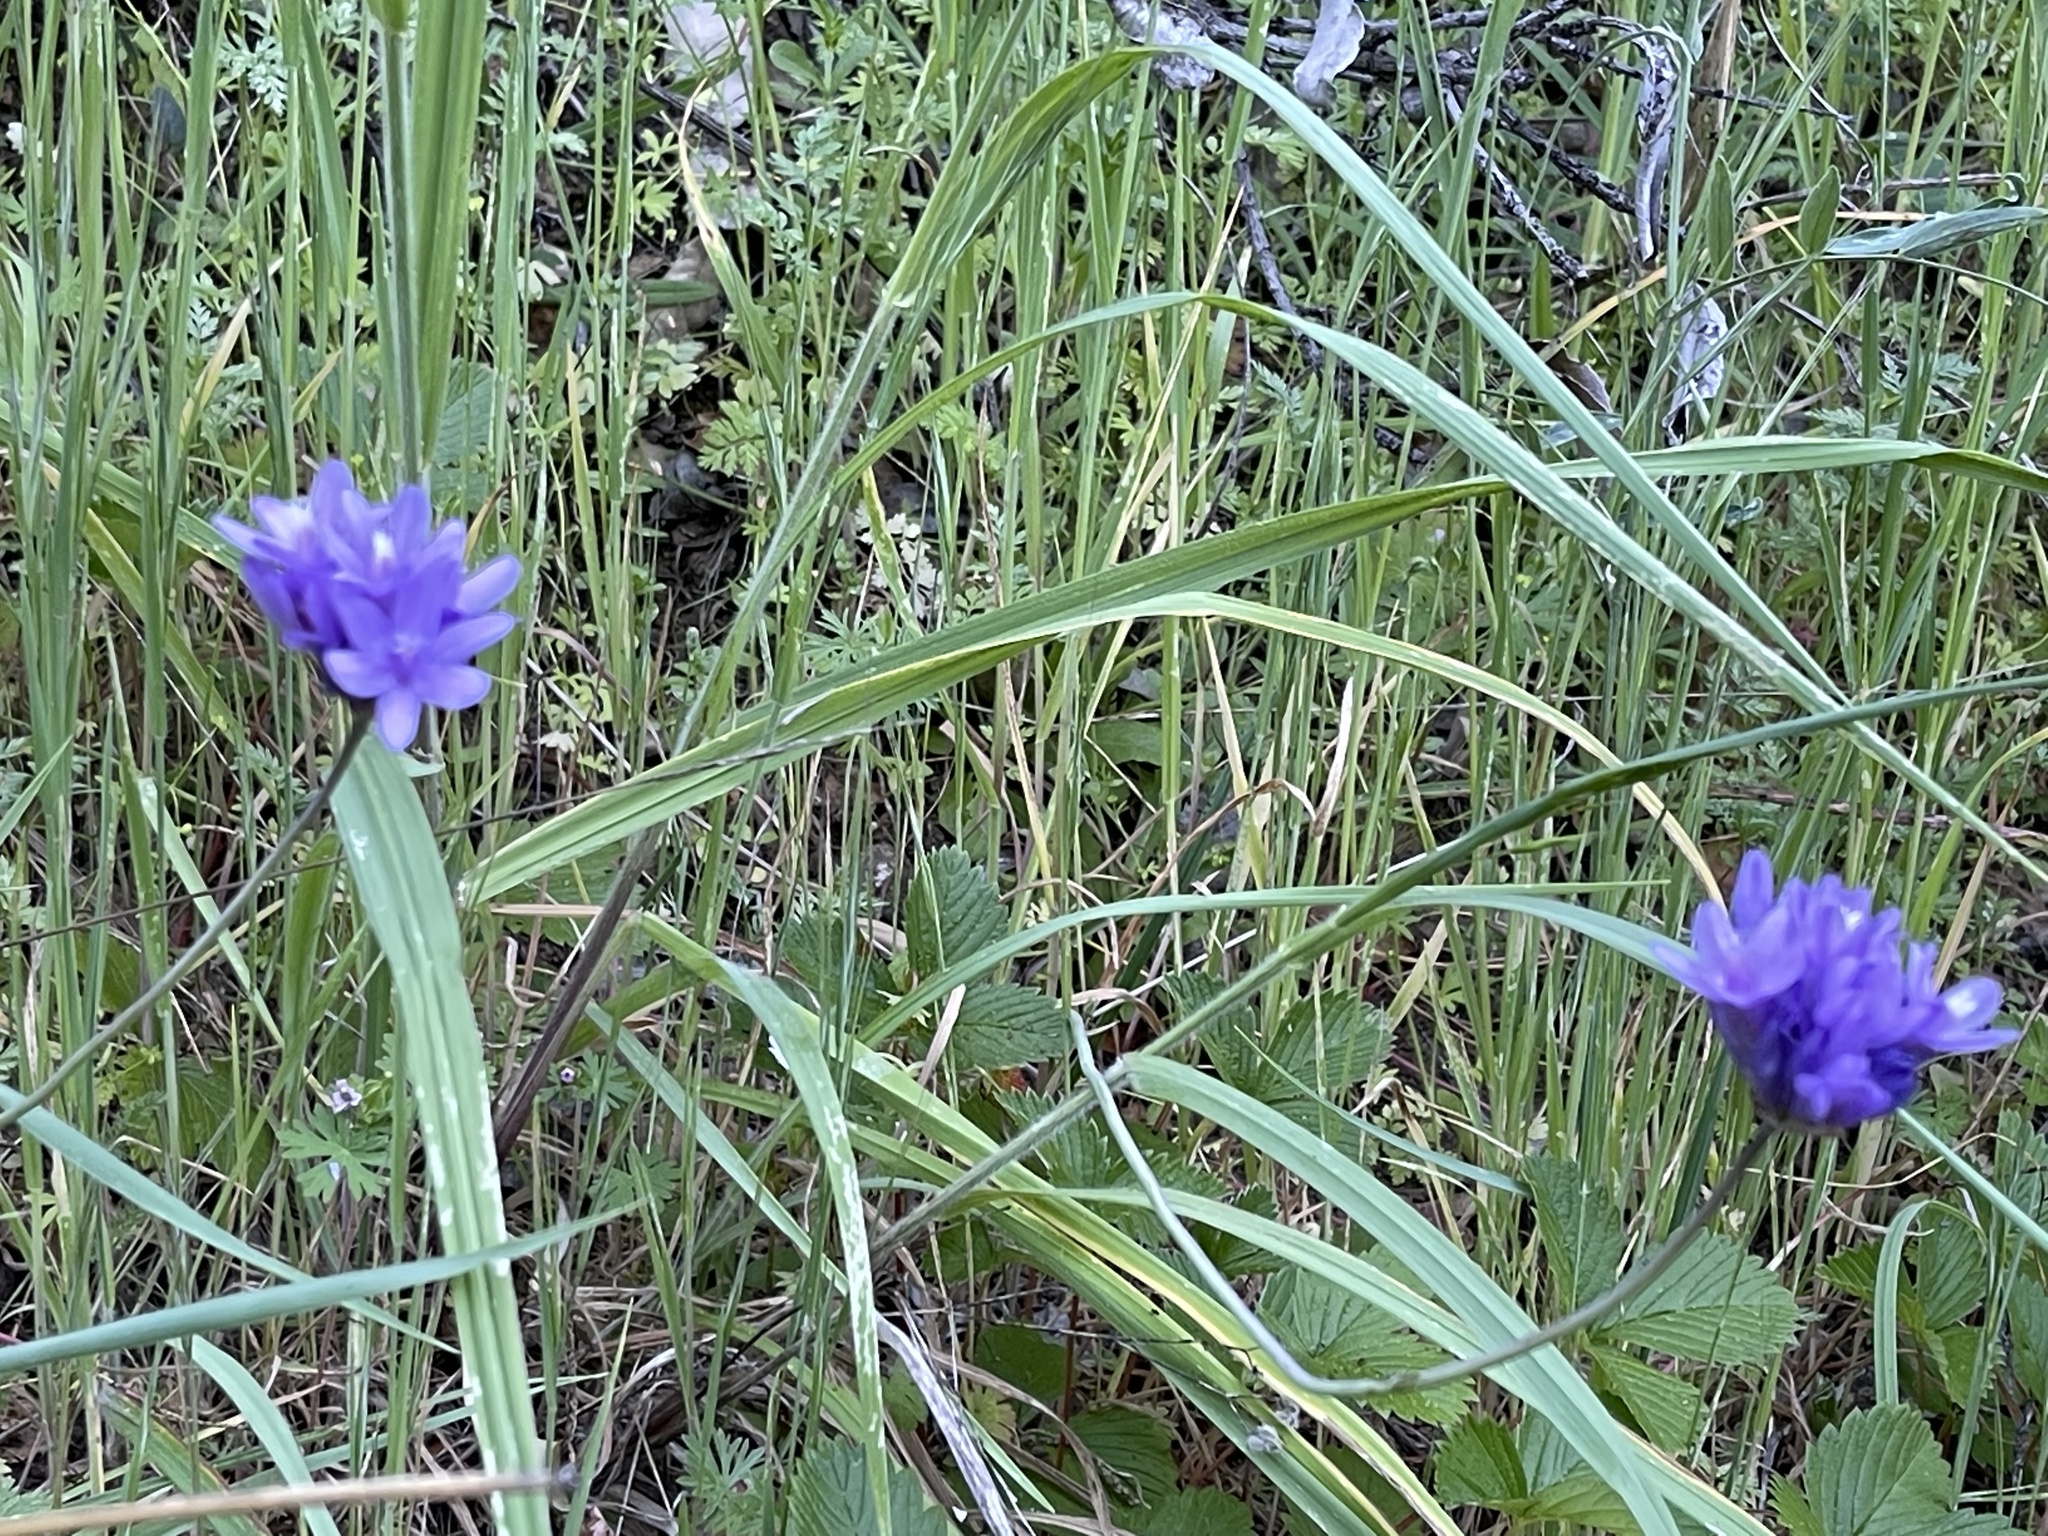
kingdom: Plantae
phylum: Tracheophyta
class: Liliopsida
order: Asparagales
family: Asparagaceae
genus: Dipterostemon
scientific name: Dipterostemon capitatus
